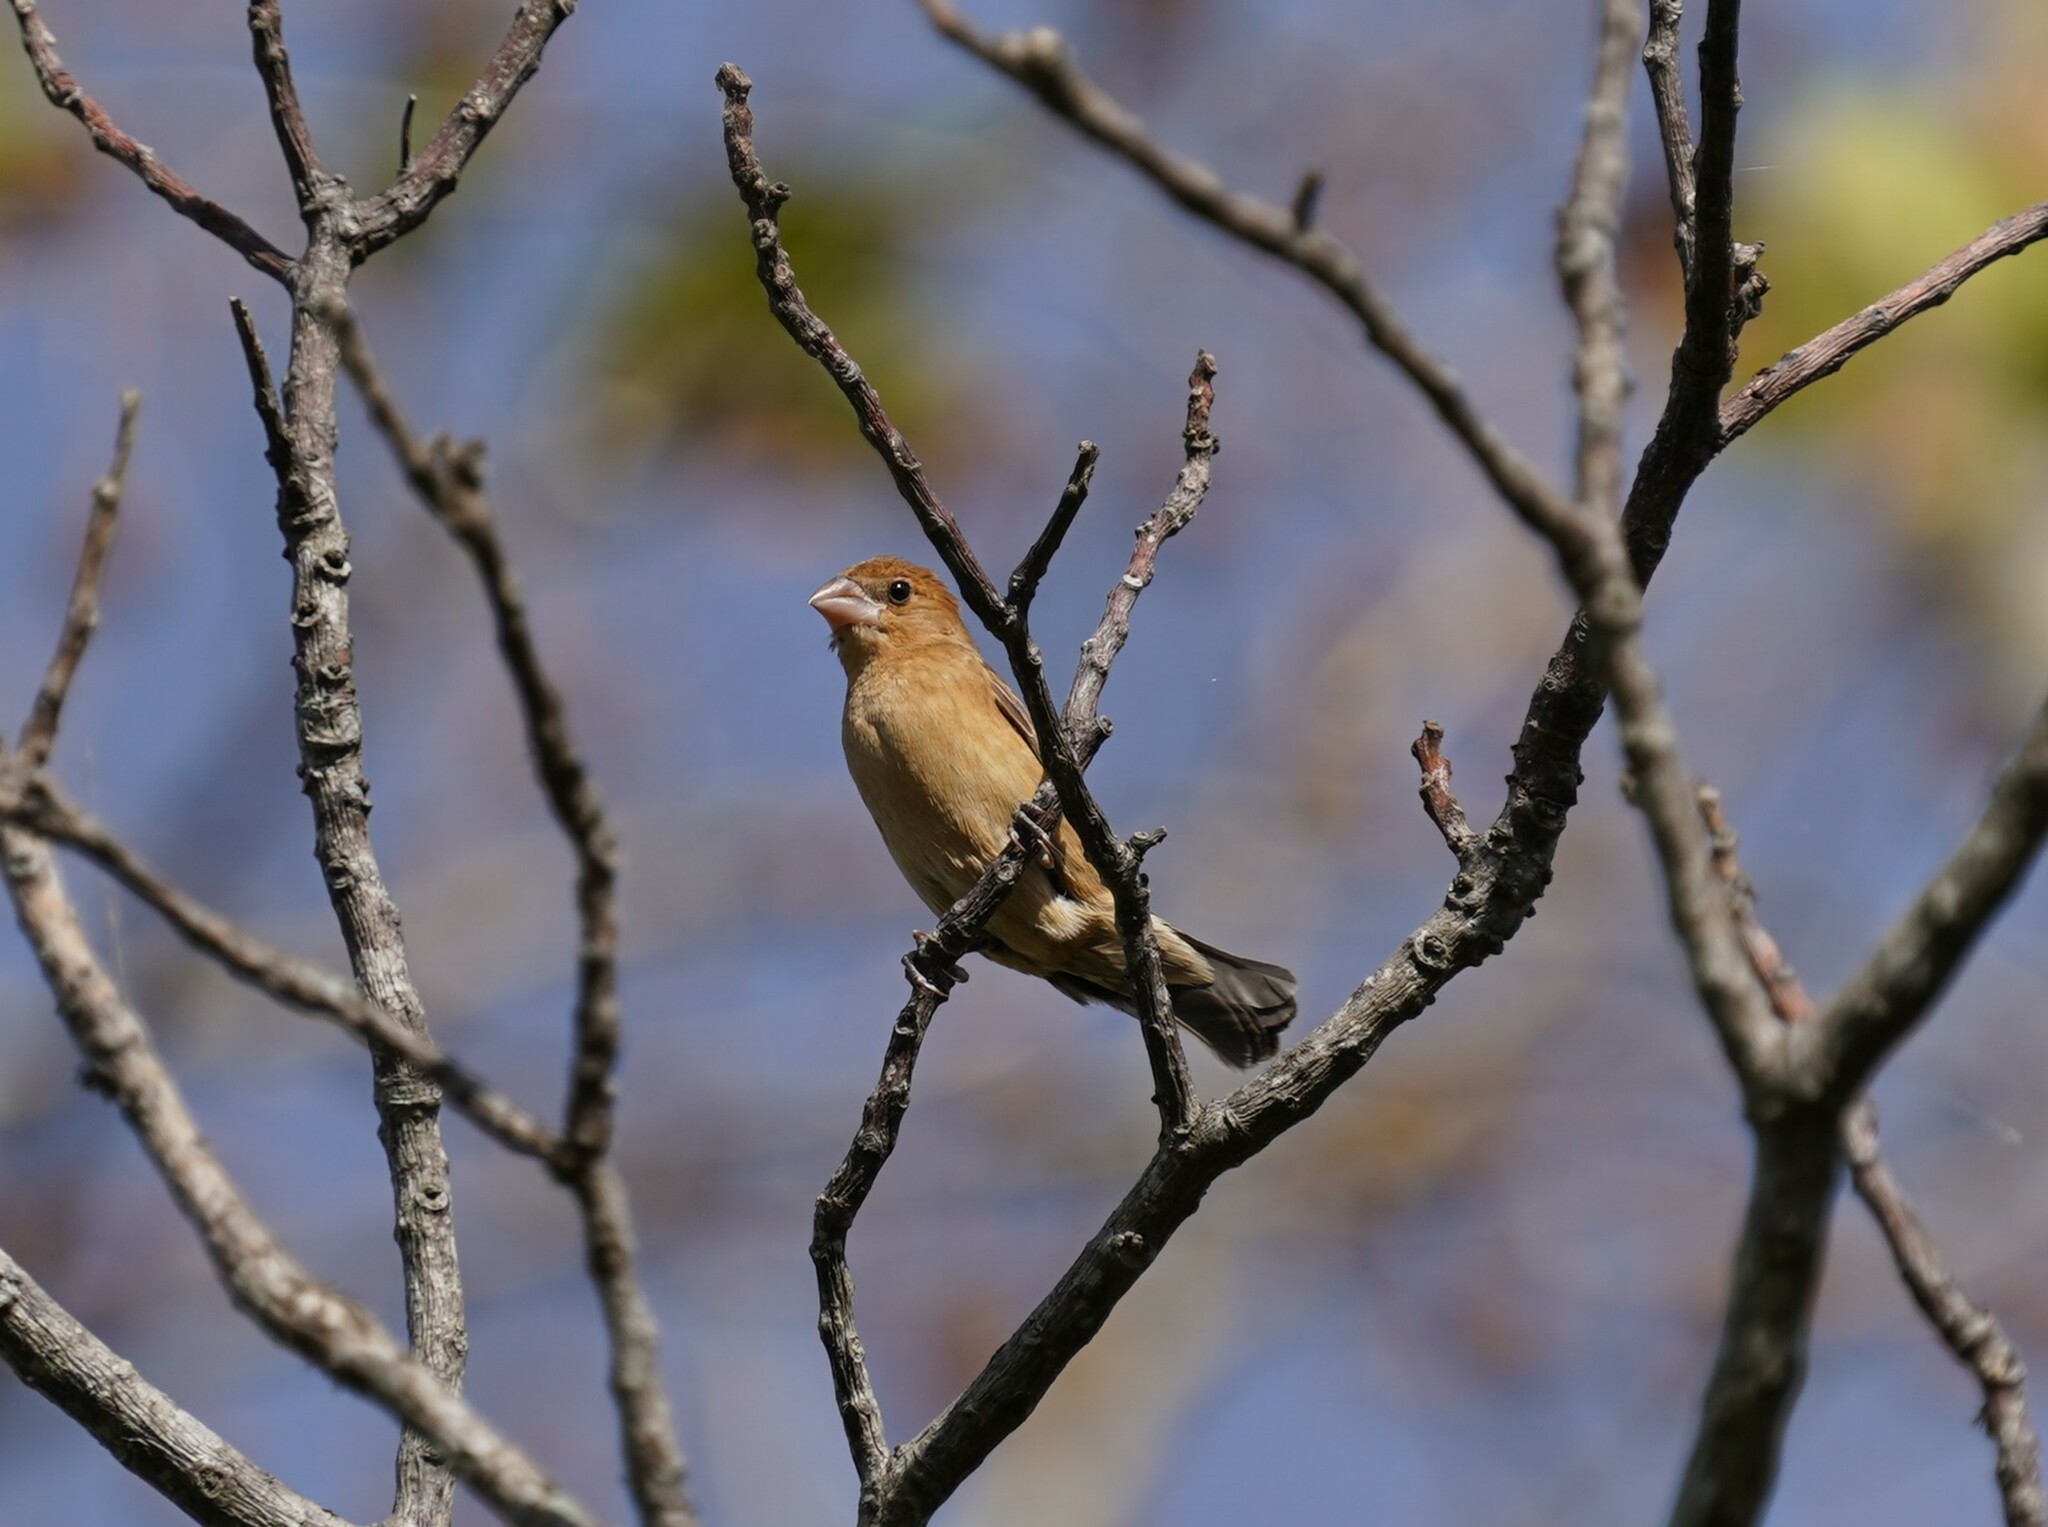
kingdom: Animalia
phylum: Chordata
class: Aves
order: Passeriformes
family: Cardinalidae
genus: Passerina
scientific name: Passerina caerulea
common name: Blue grosbeak
